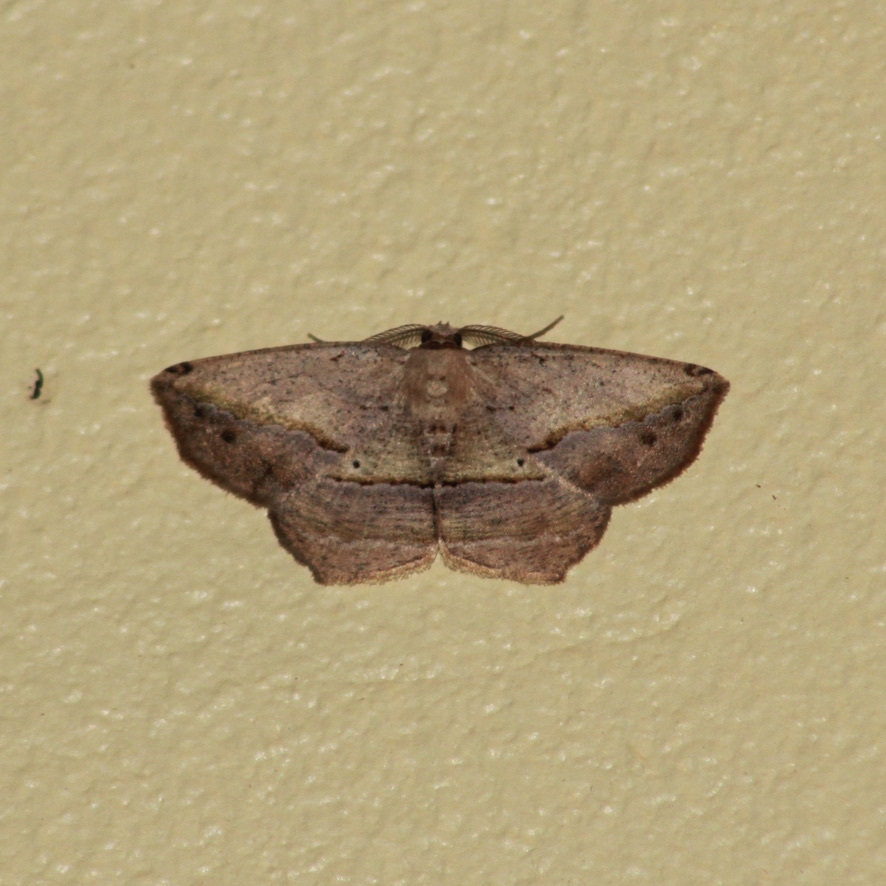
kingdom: Animalia
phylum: Arthropoda
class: Insecta
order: Lepidoptera
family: Geometridae
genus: Eusarca
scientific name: Eusarca concomitaria
